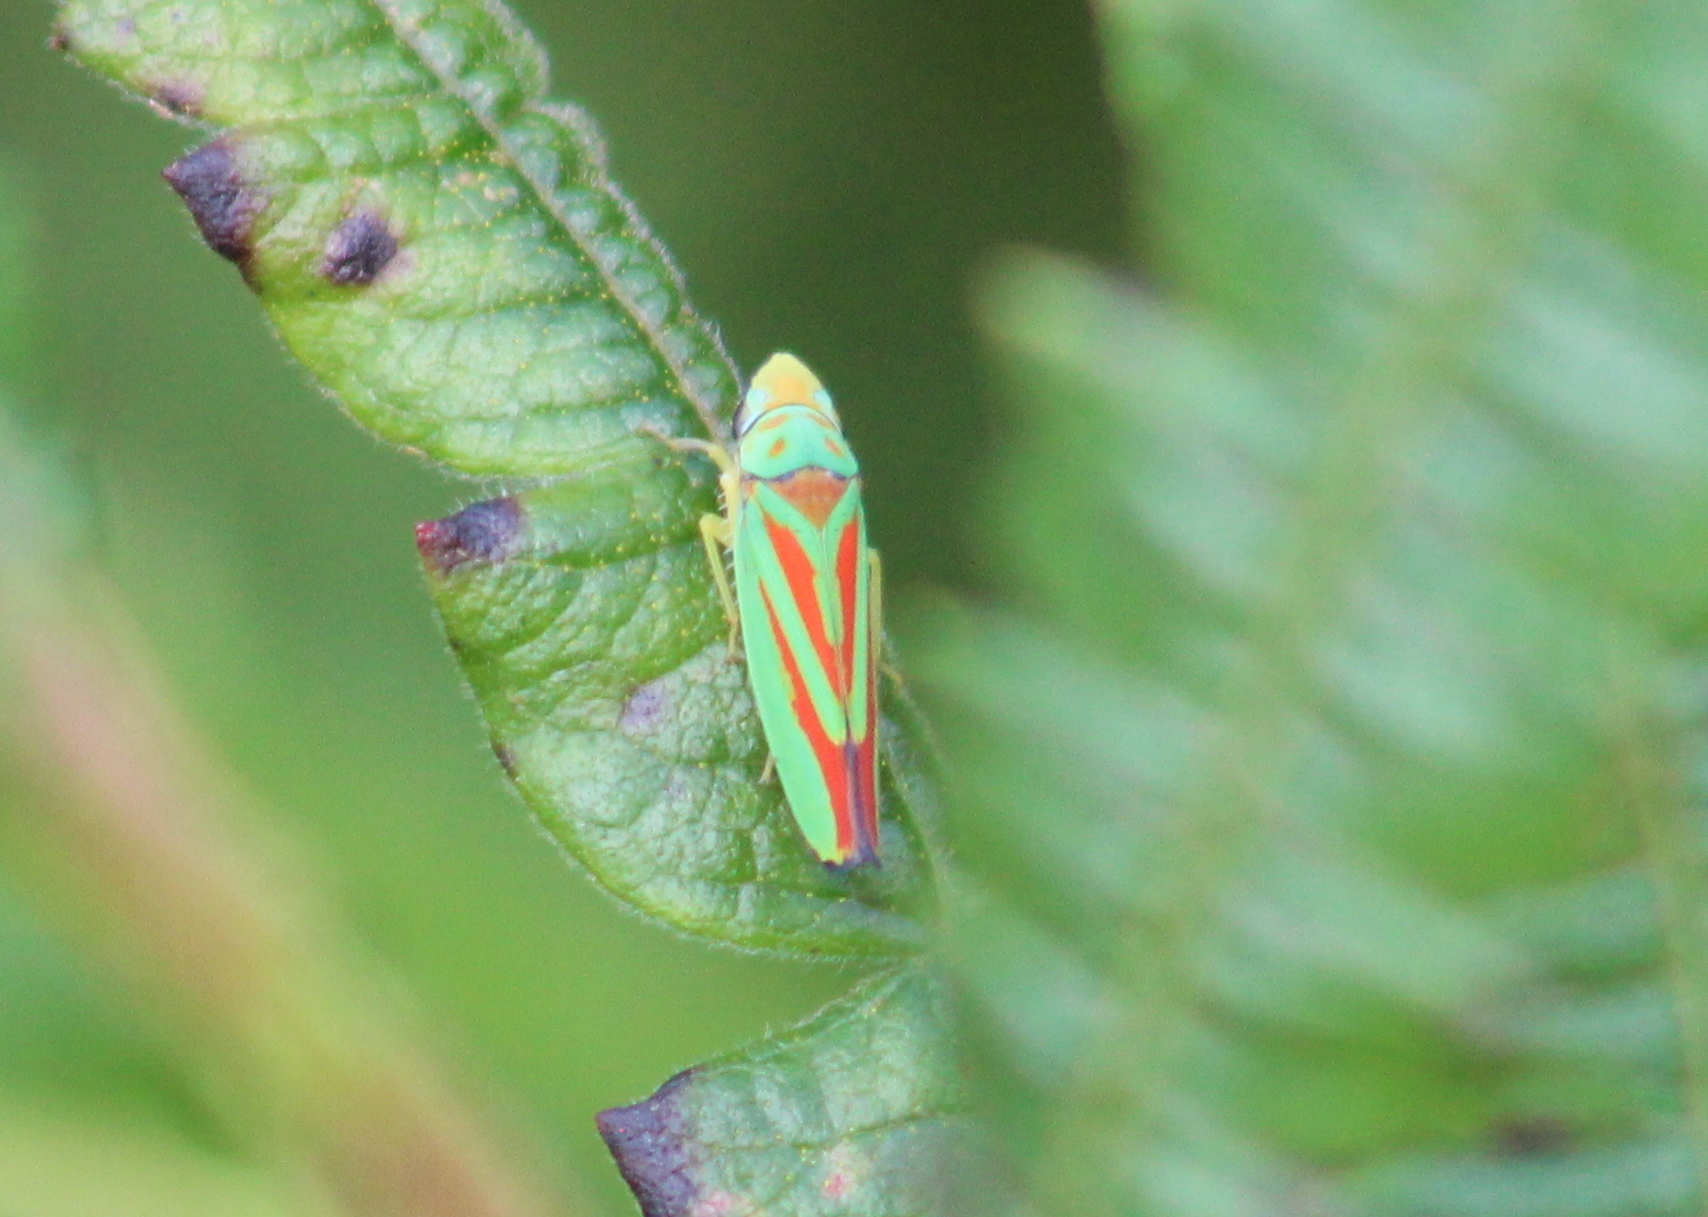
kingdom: Animalia
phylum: Arthropoda
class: Insecta
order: Hemiptera
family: Cicadellidae
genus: Graphocephala
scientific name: Graphocephala fennahi
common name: Rhododendron leafhopper
